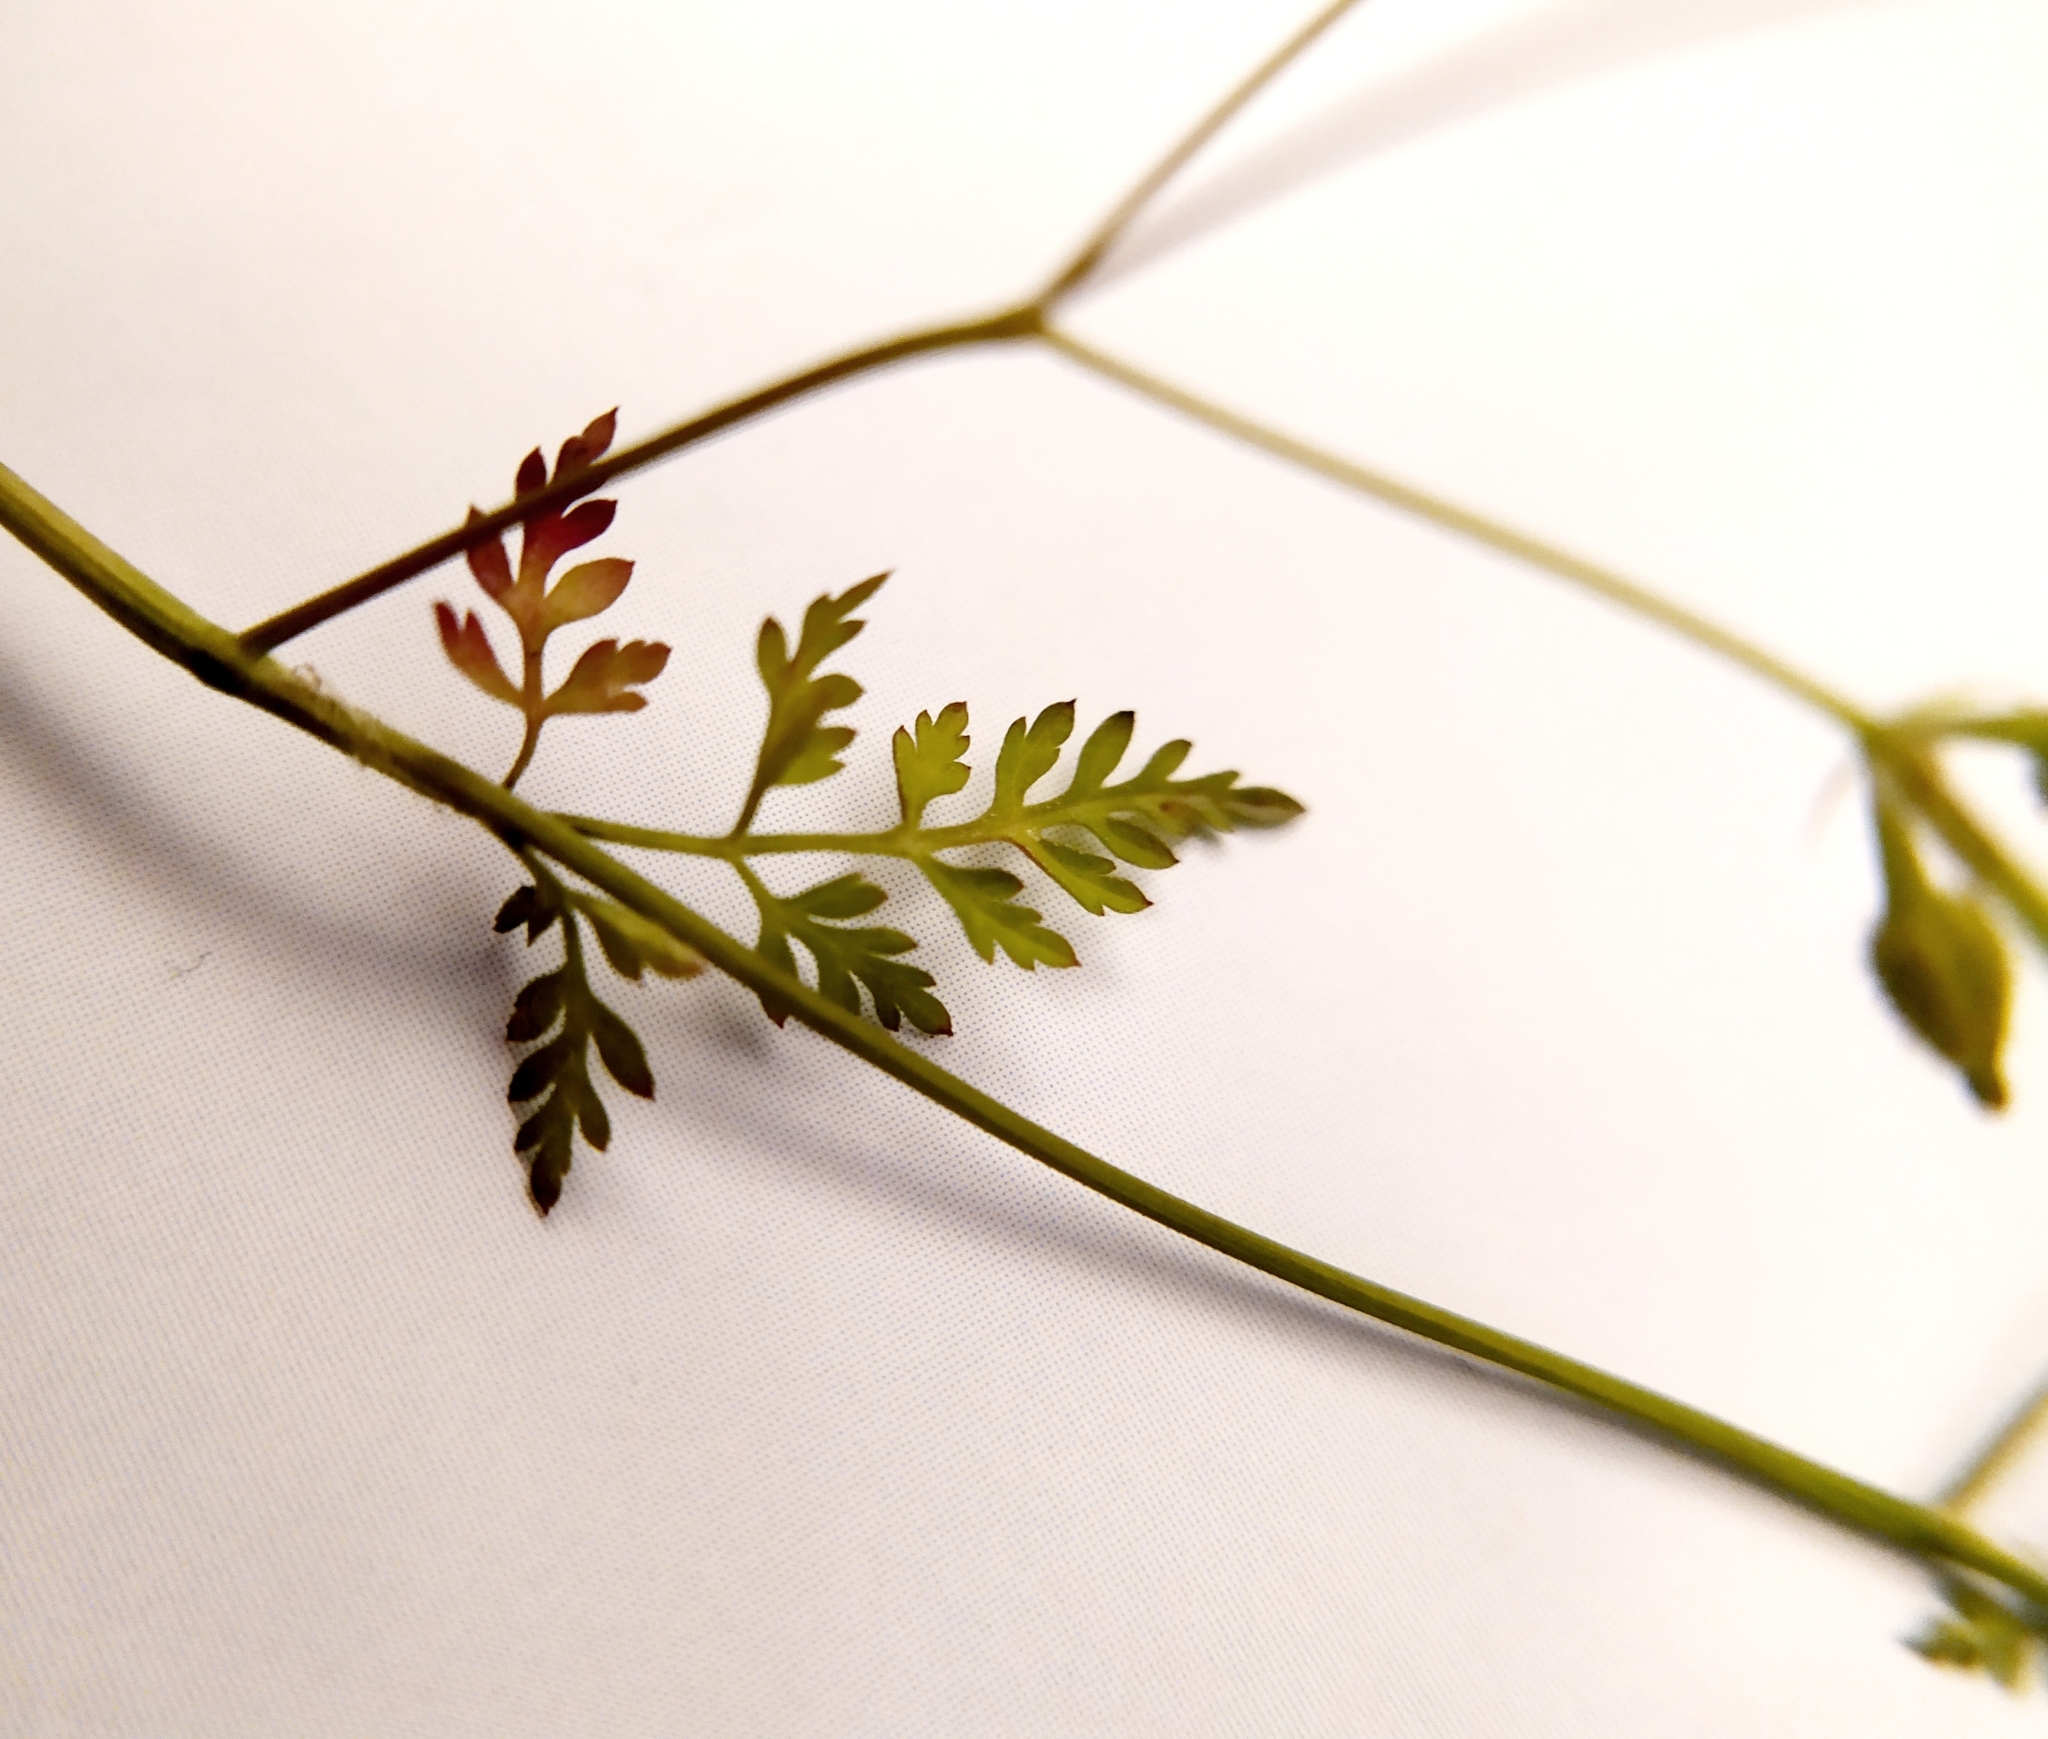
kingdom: Plantae
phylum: Tracheophyta
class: Magnoliopsida
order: Apiales
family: Apiaceae
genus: Anthriscus
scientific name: Anthriscus caucalis
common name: Bur chervil
